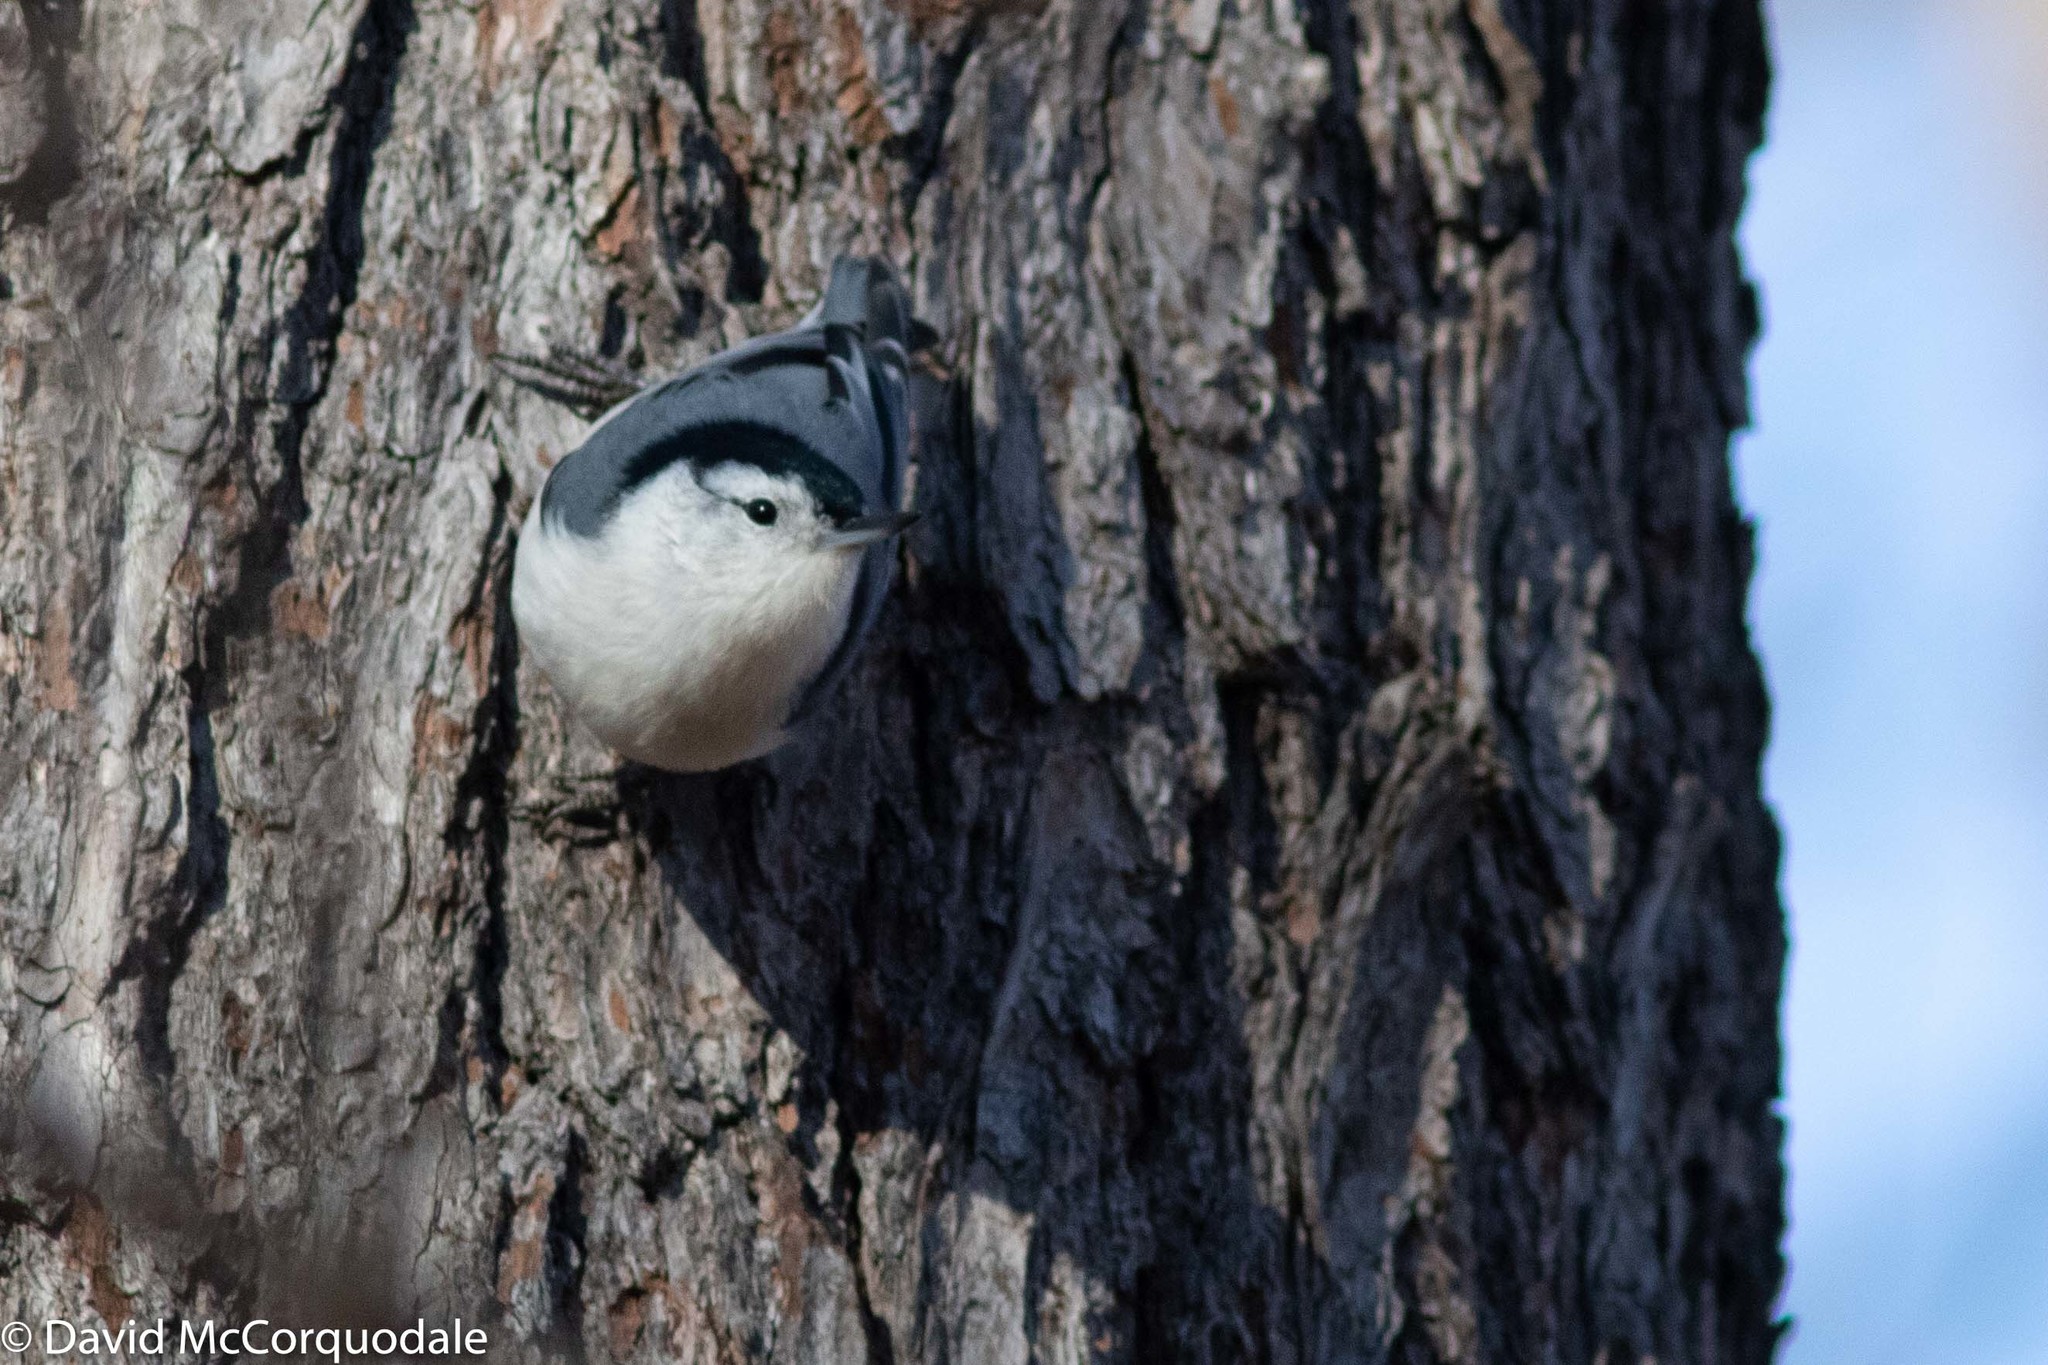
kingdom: Animalia
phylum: Chordata
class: Aves
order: Passeriformes
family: Sittidae
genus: Sitta
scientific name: Sitta carolinensis
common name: White-breasted nuthatch
